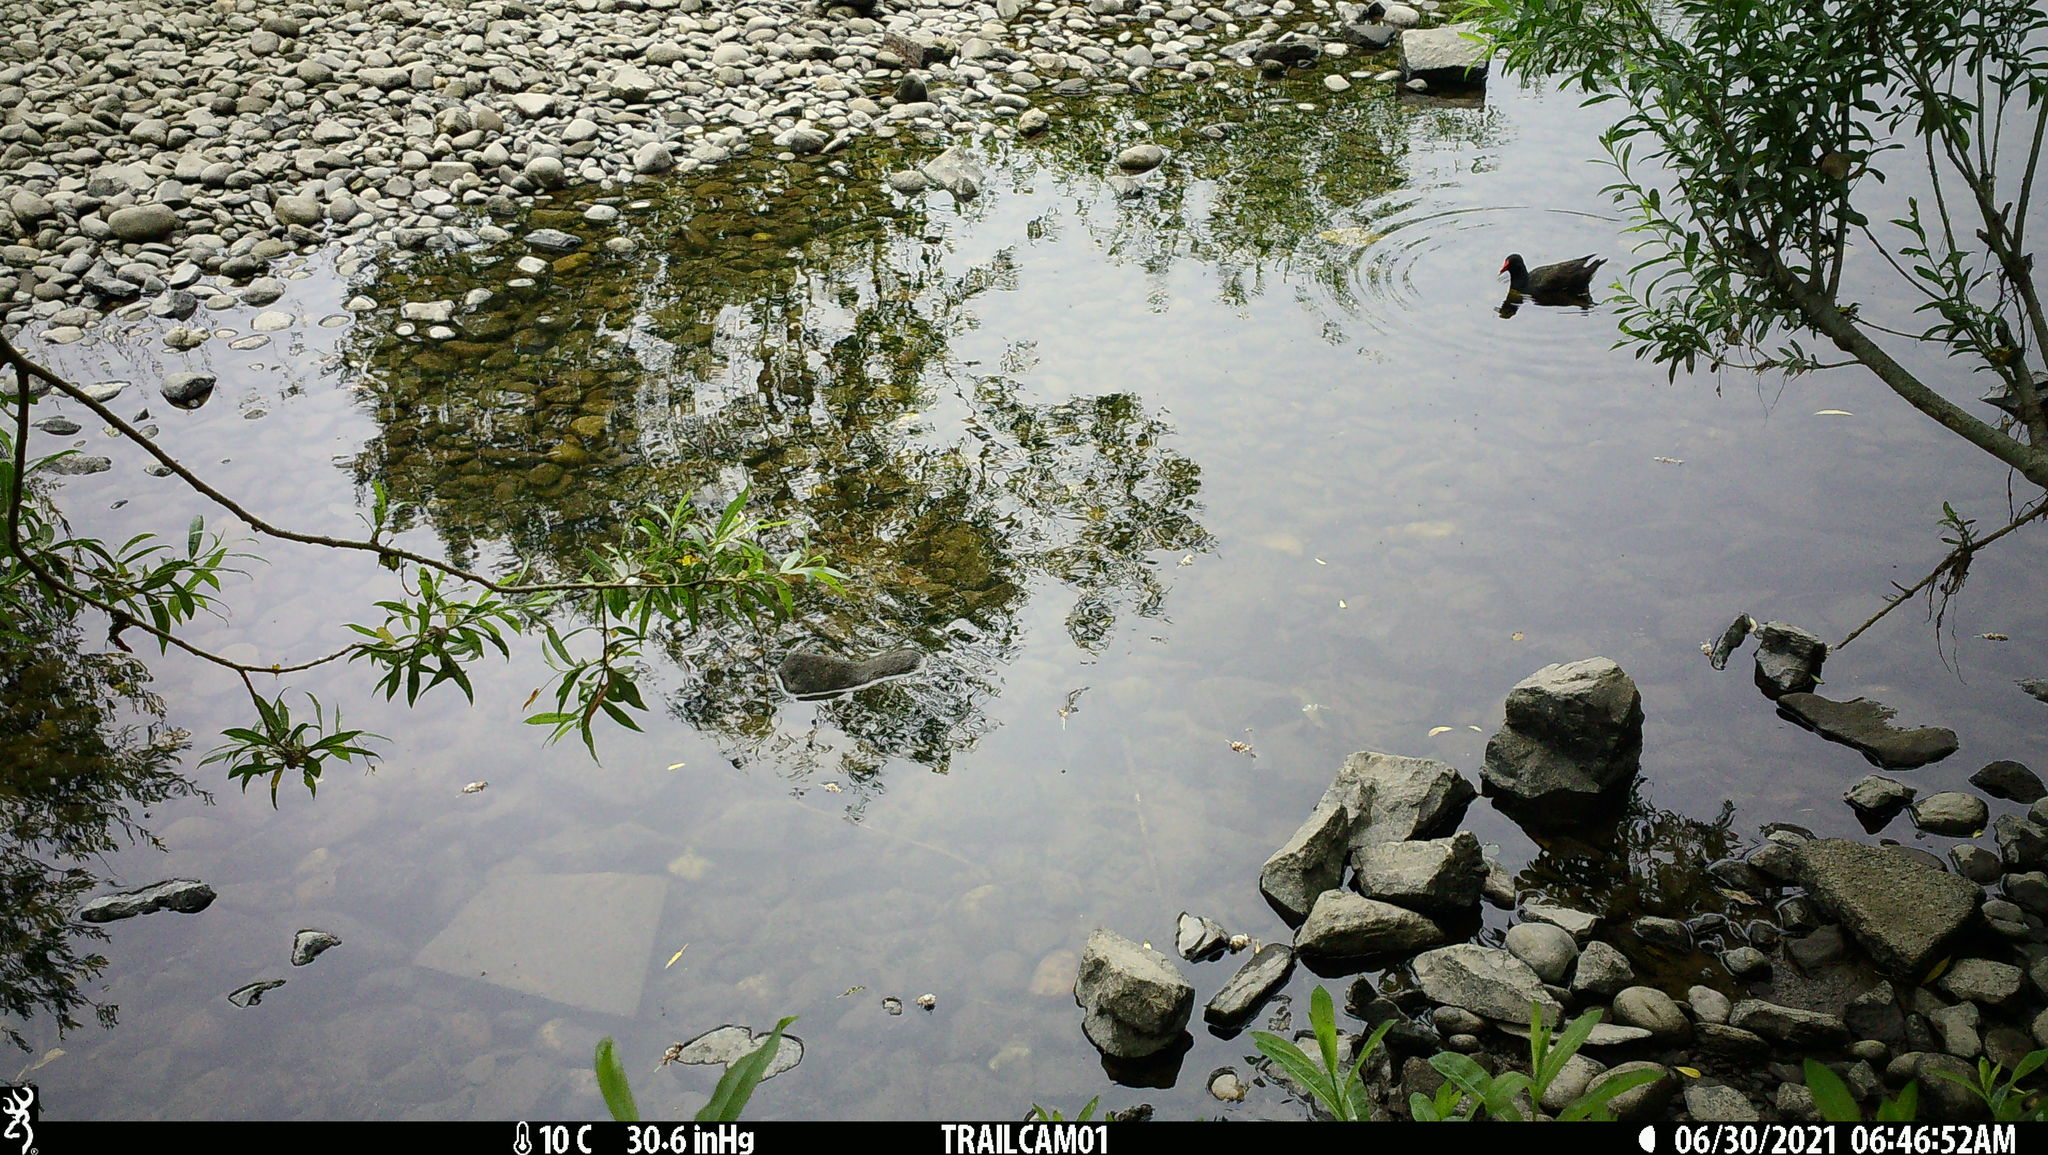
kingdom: Animalia
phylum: Chordata
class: Aves
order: Gruiformes
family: Rallidae
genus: Gallinula
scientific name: Gallinula chloropus
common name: Common moorhen
